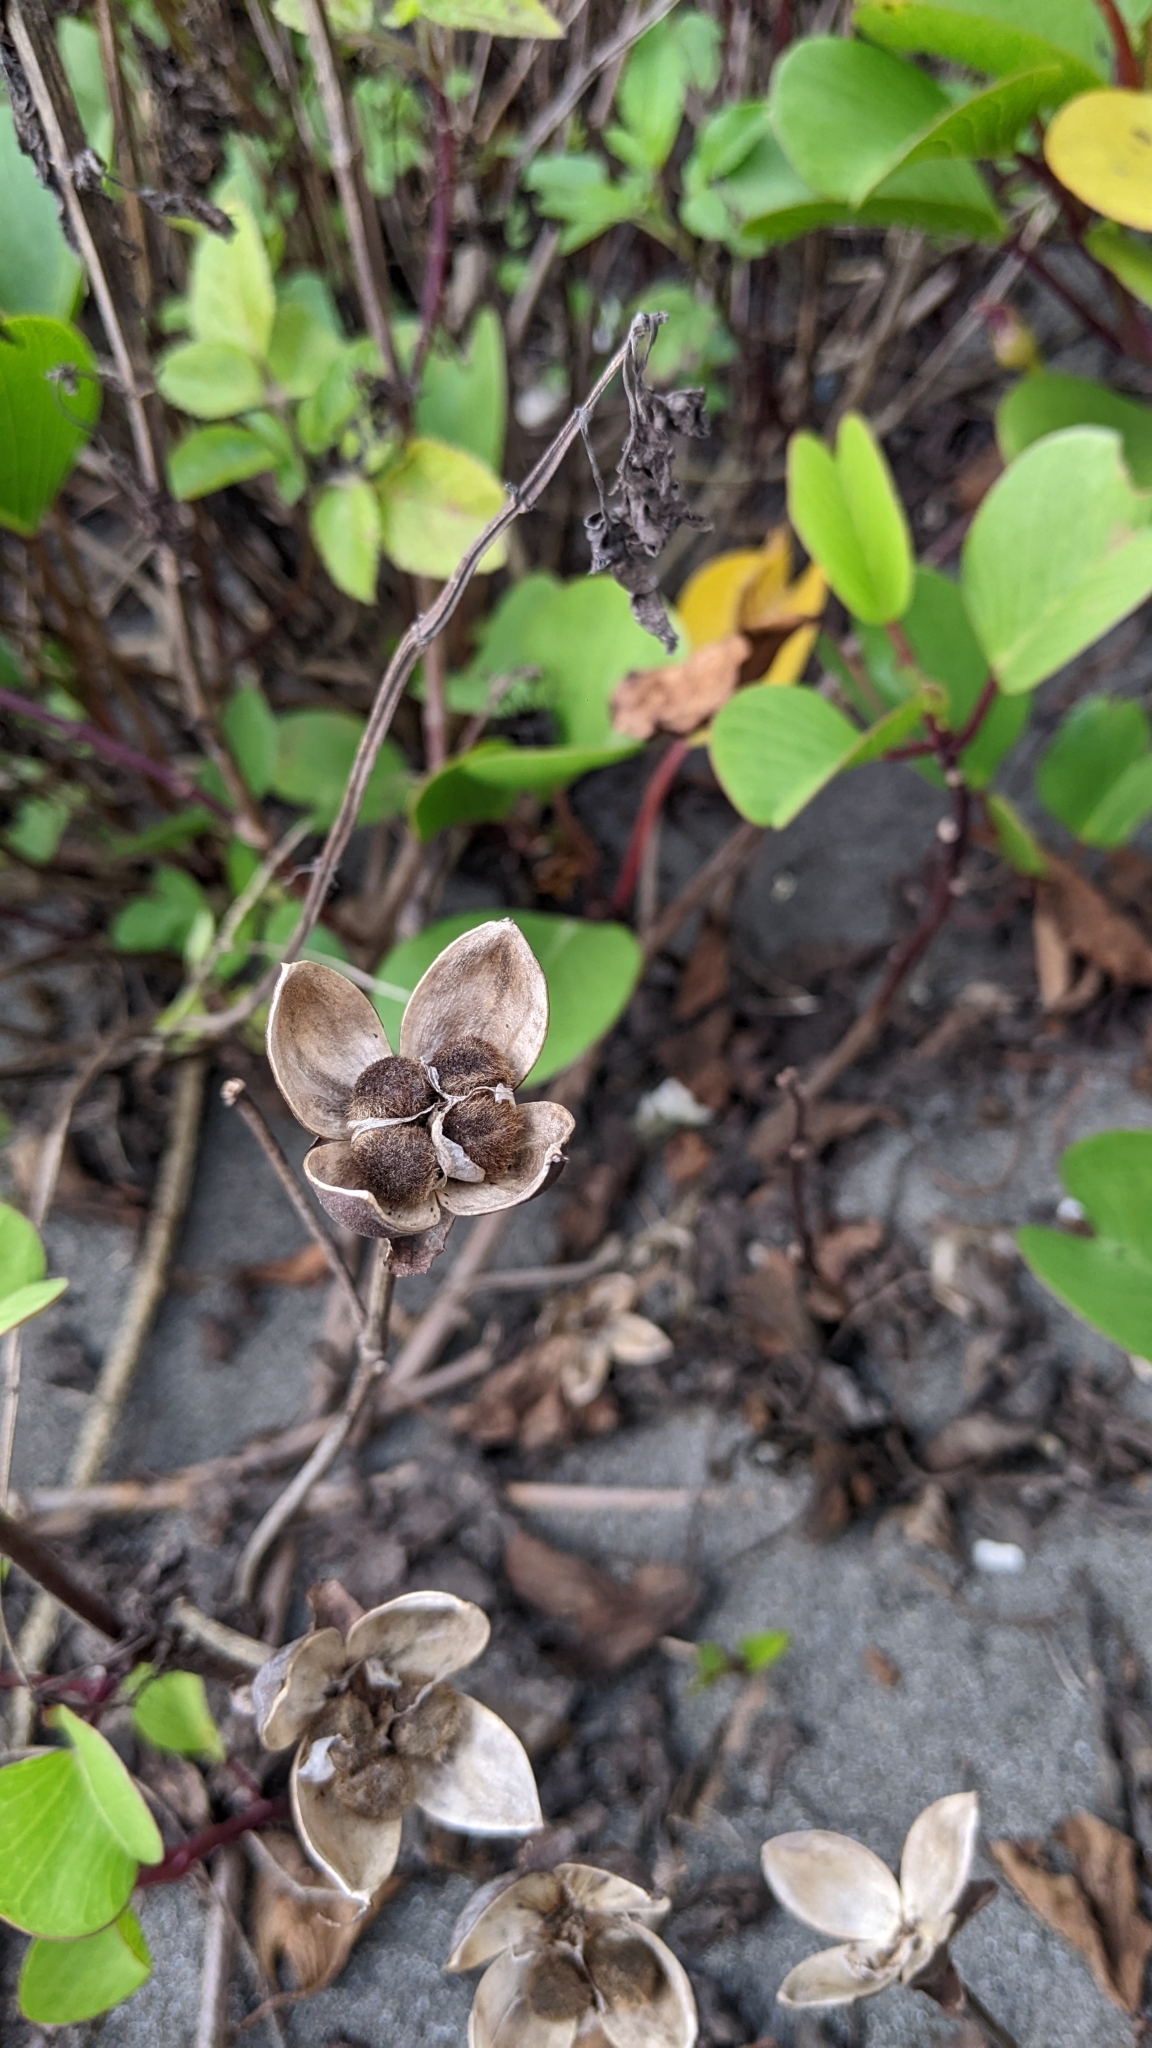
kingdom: Plantae
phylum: Tracheophyta
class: Magnoliopsida
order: Solanales
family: Convolvulaceae
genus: Ipomoea
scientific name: Ipomoea pes-caprae
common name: Beach morning glory
